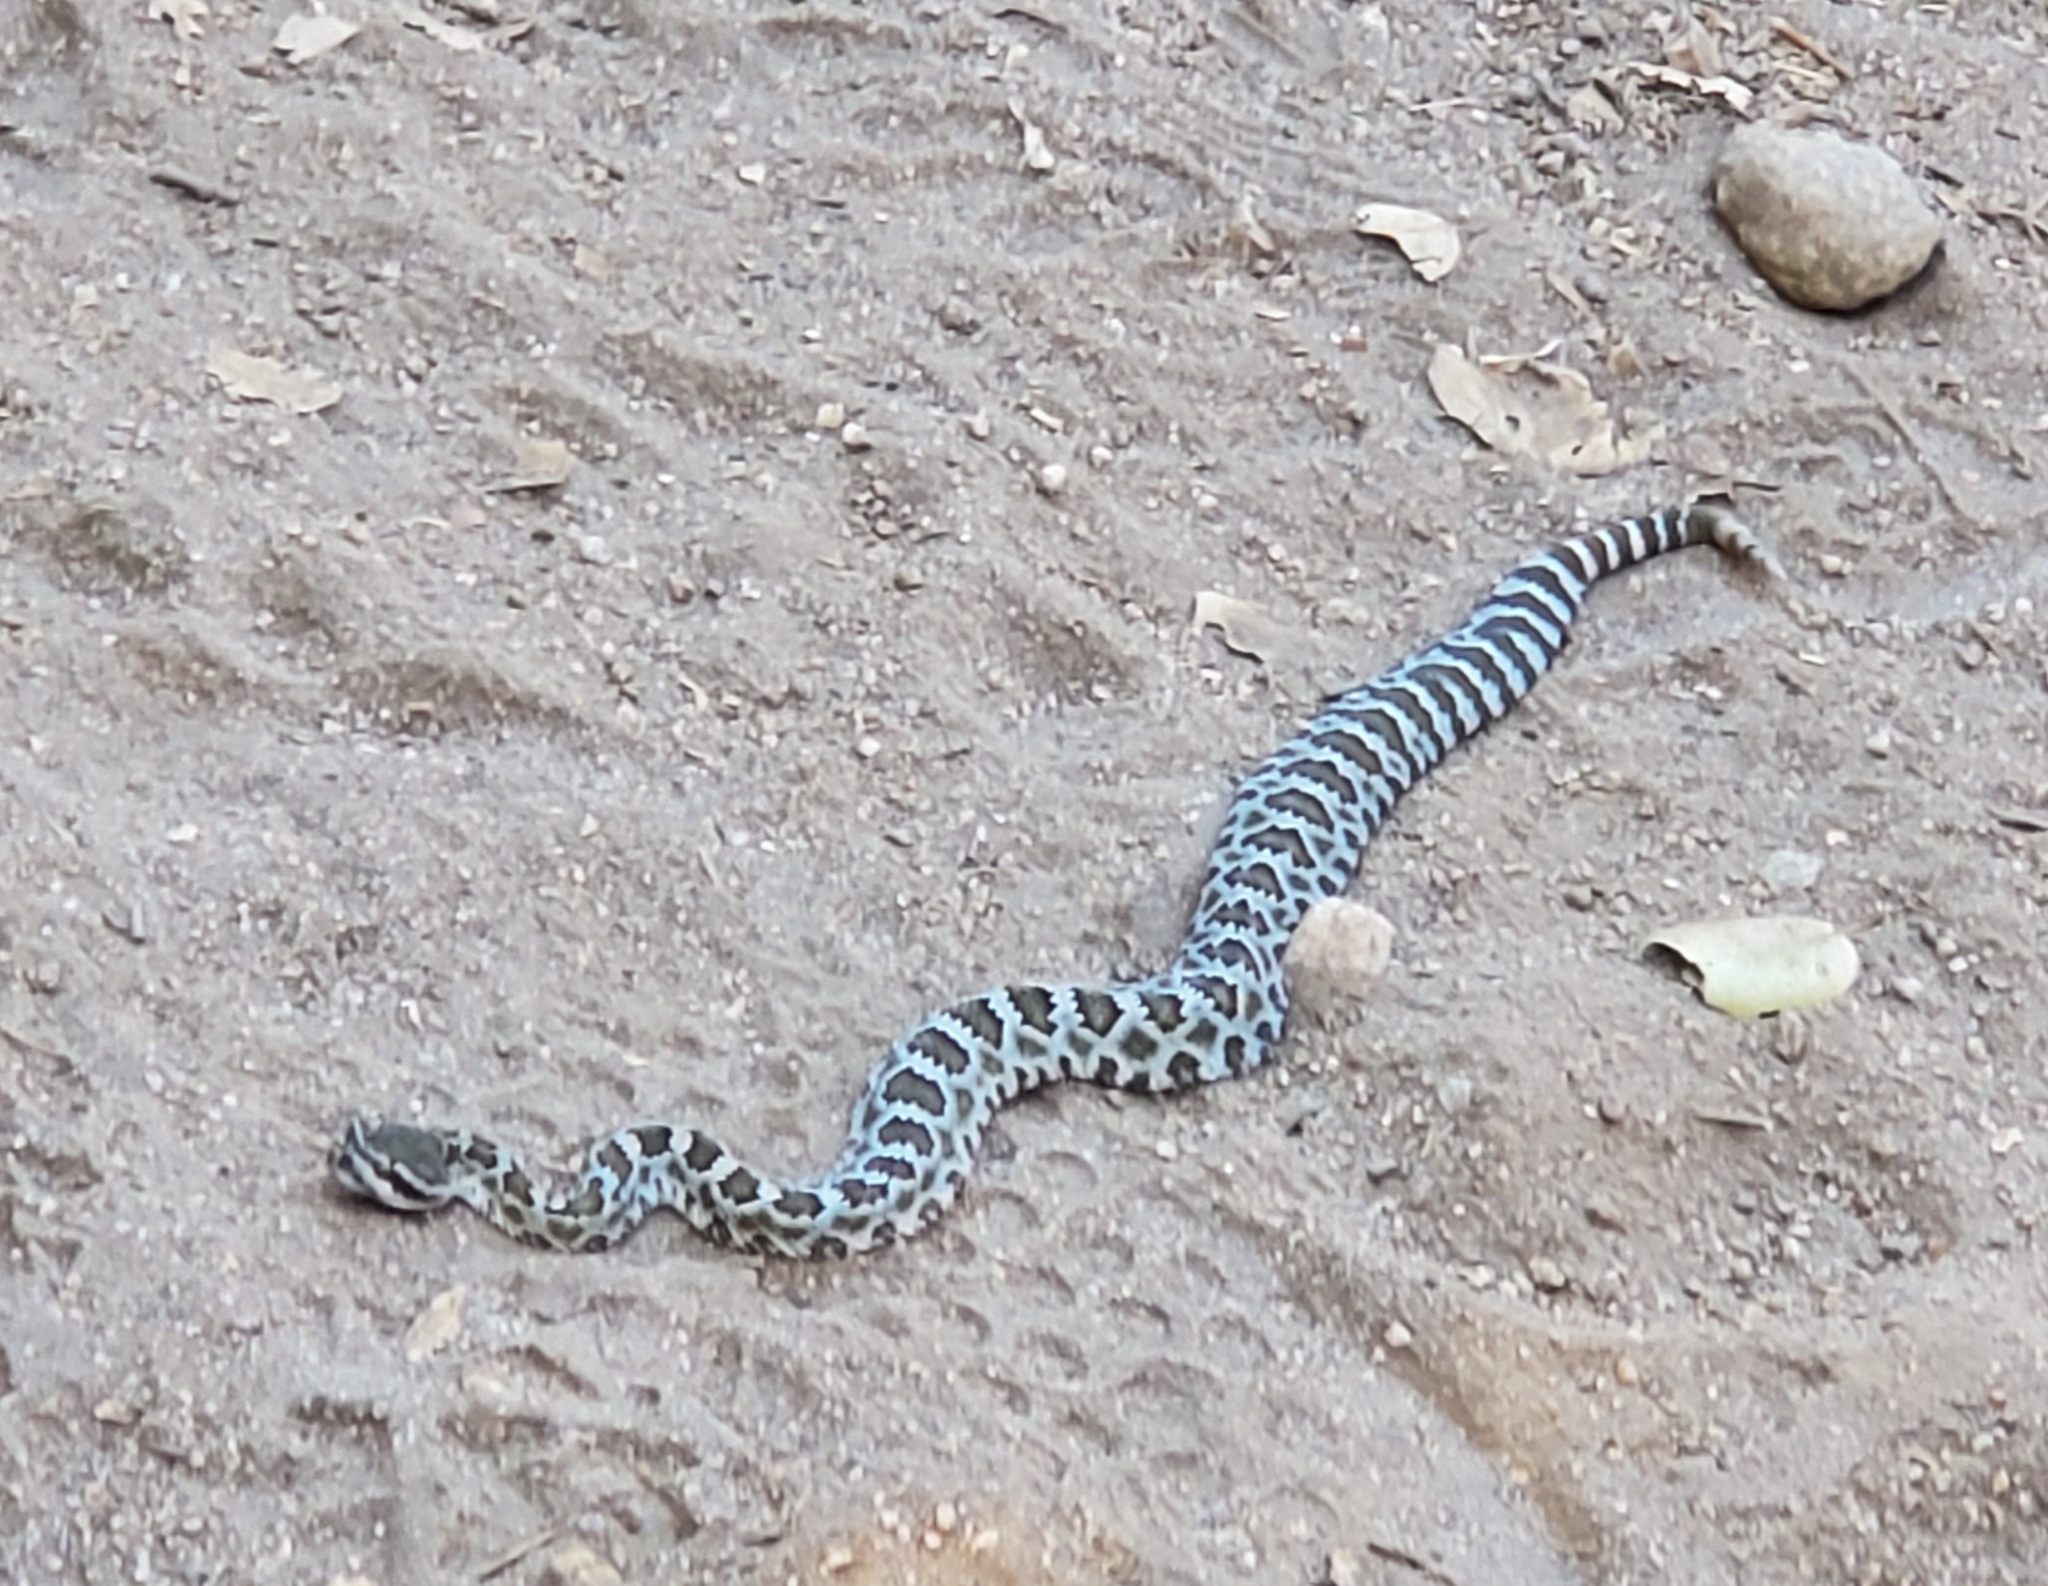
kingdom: Animalia
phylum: Chordata
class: Squamata
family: Viperidae
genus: Crotalus
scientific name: Crotalus oreganus
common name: Abyssus
